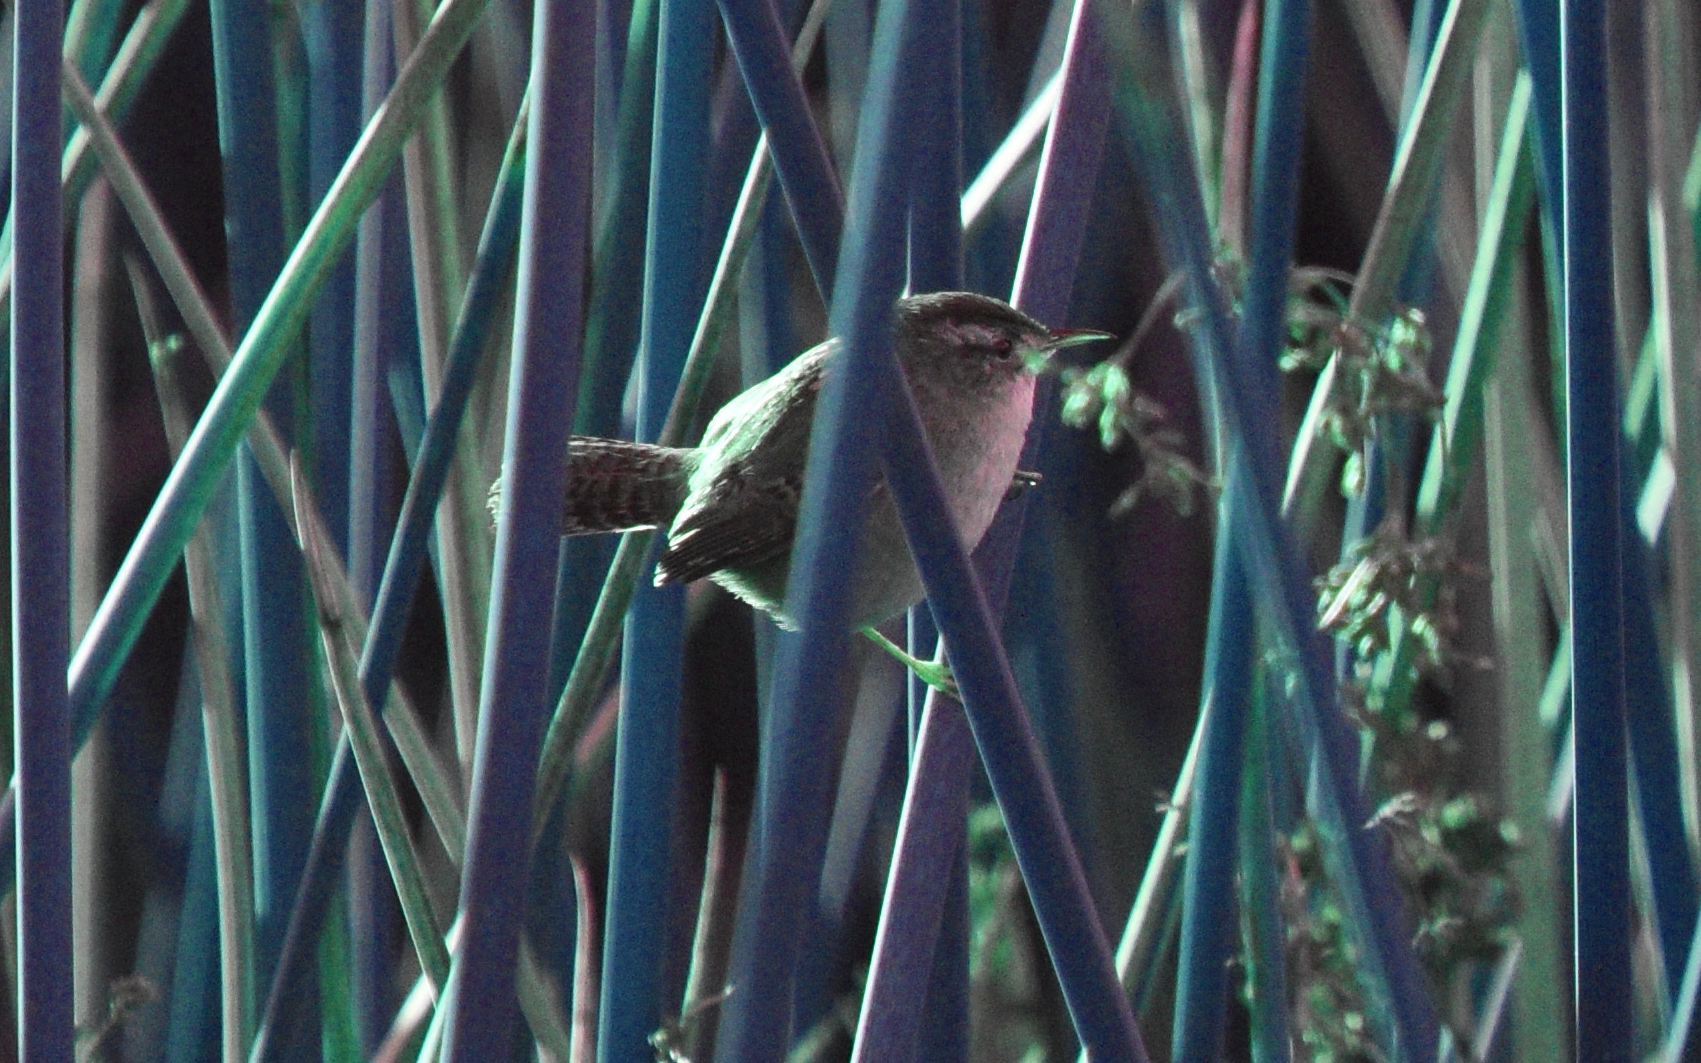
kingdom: Animalia
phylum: Chordata
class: Aves
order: Passeriformes
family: Troglodytidae
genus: Cistothorus
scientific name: Cistothorus palustris
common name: Marsh wren
